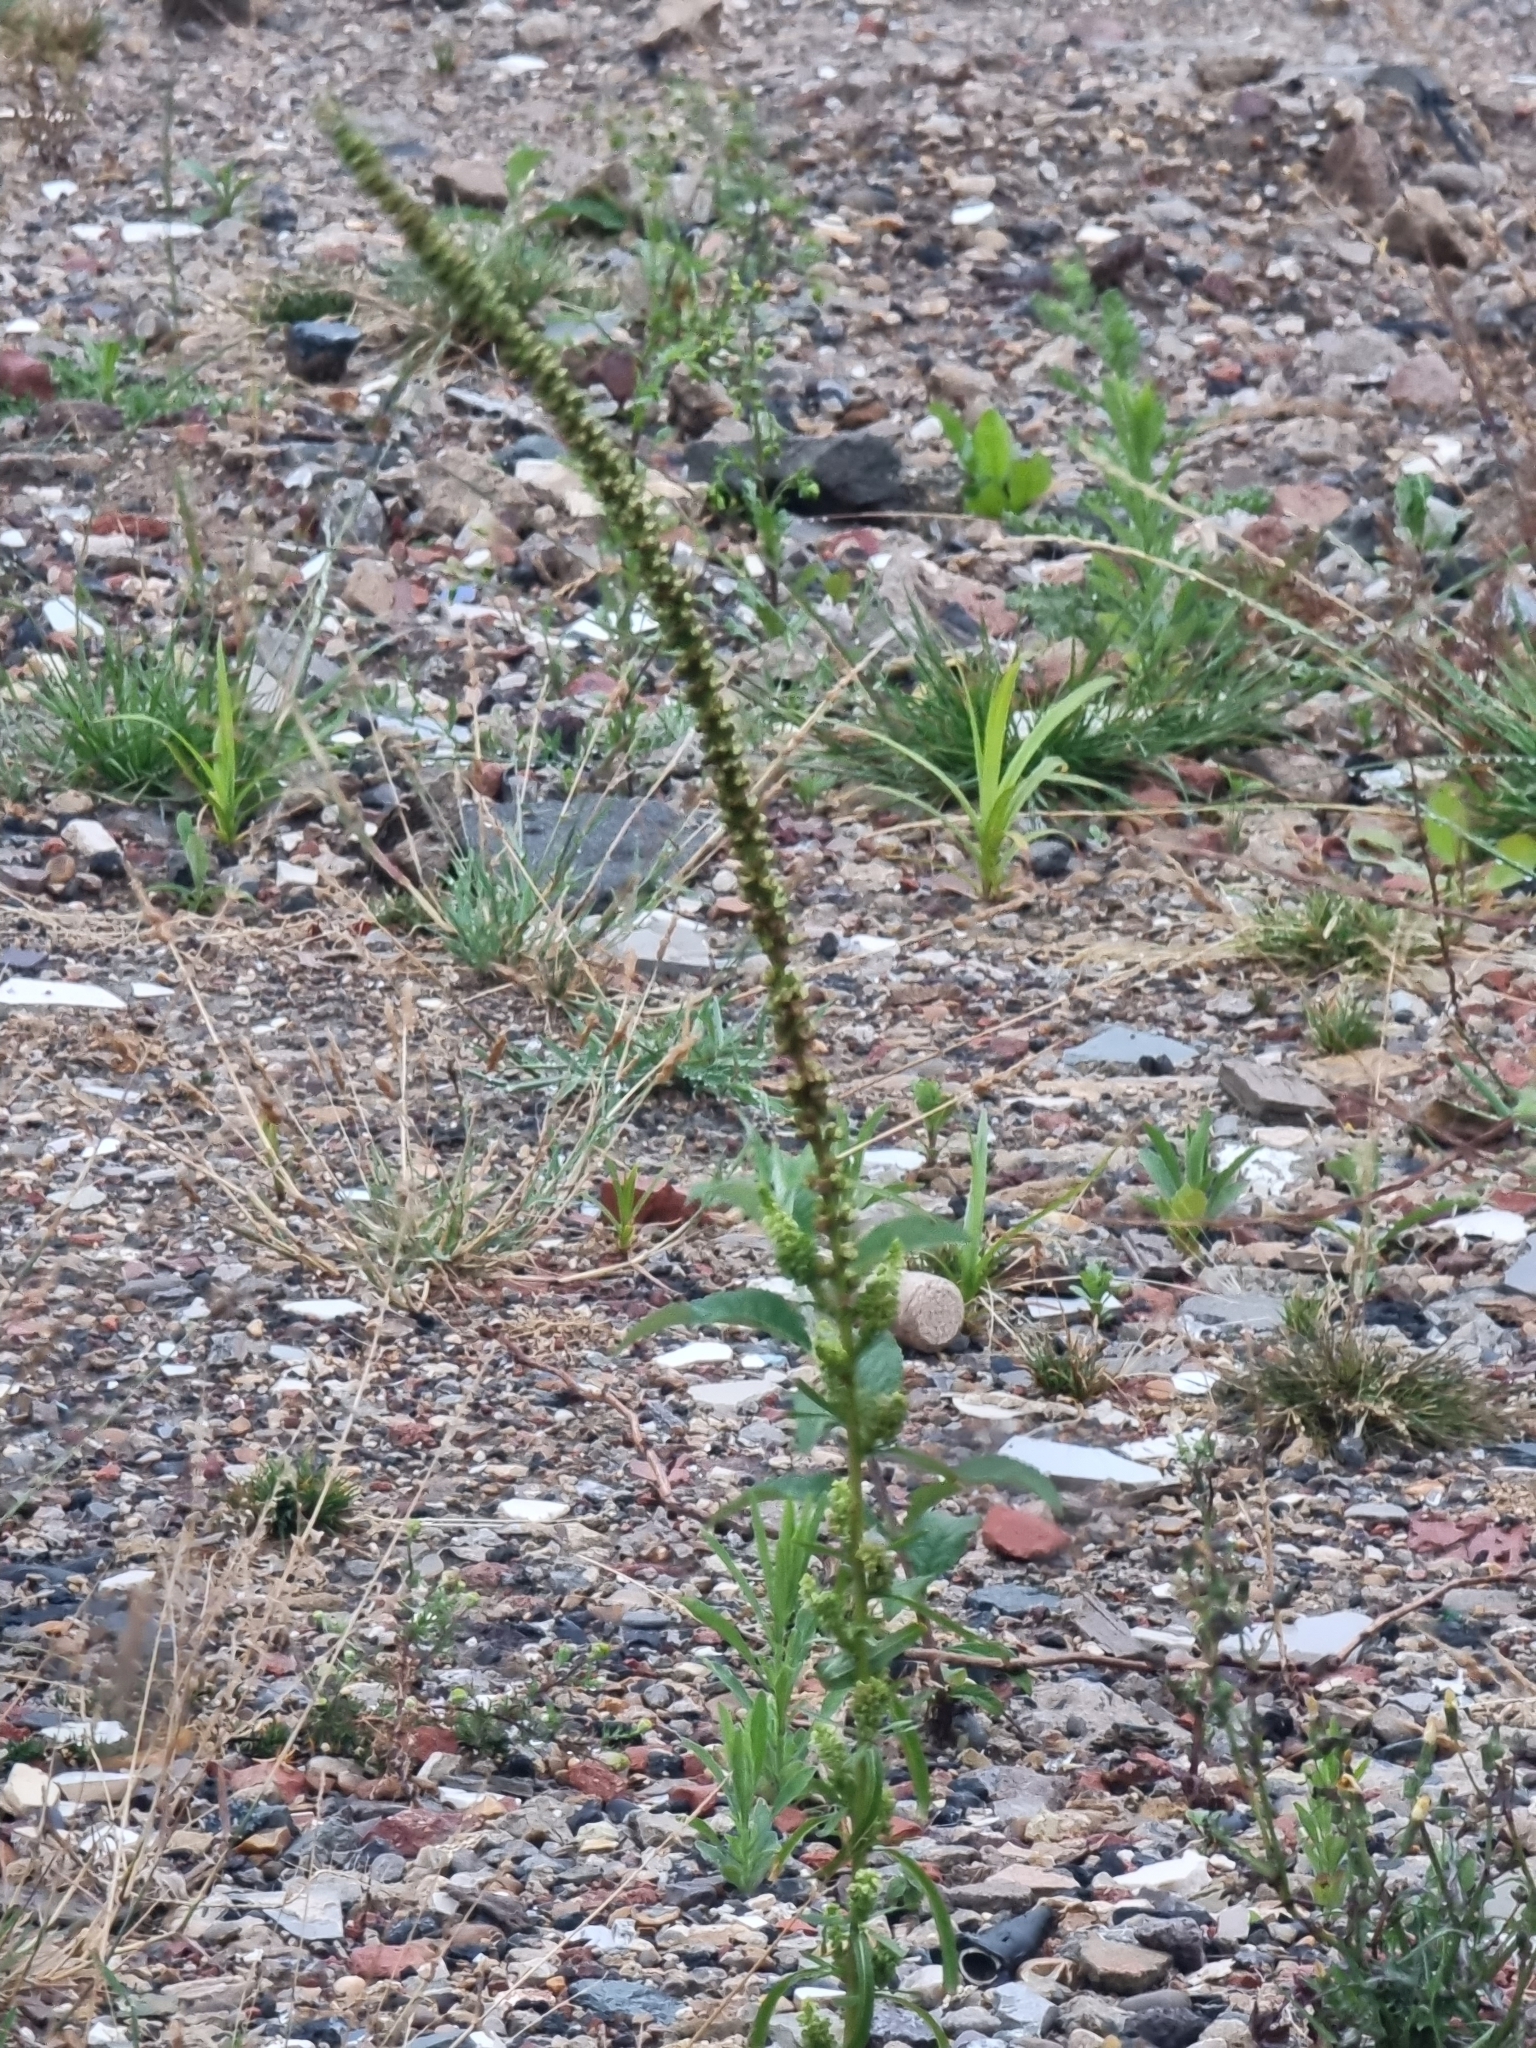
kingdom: Plantae
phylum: Tracheophyta
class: Magnoliopsida
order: Brassicales
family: Resedaceae
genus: Reseda
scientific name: Reseda luteola
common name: Weld
